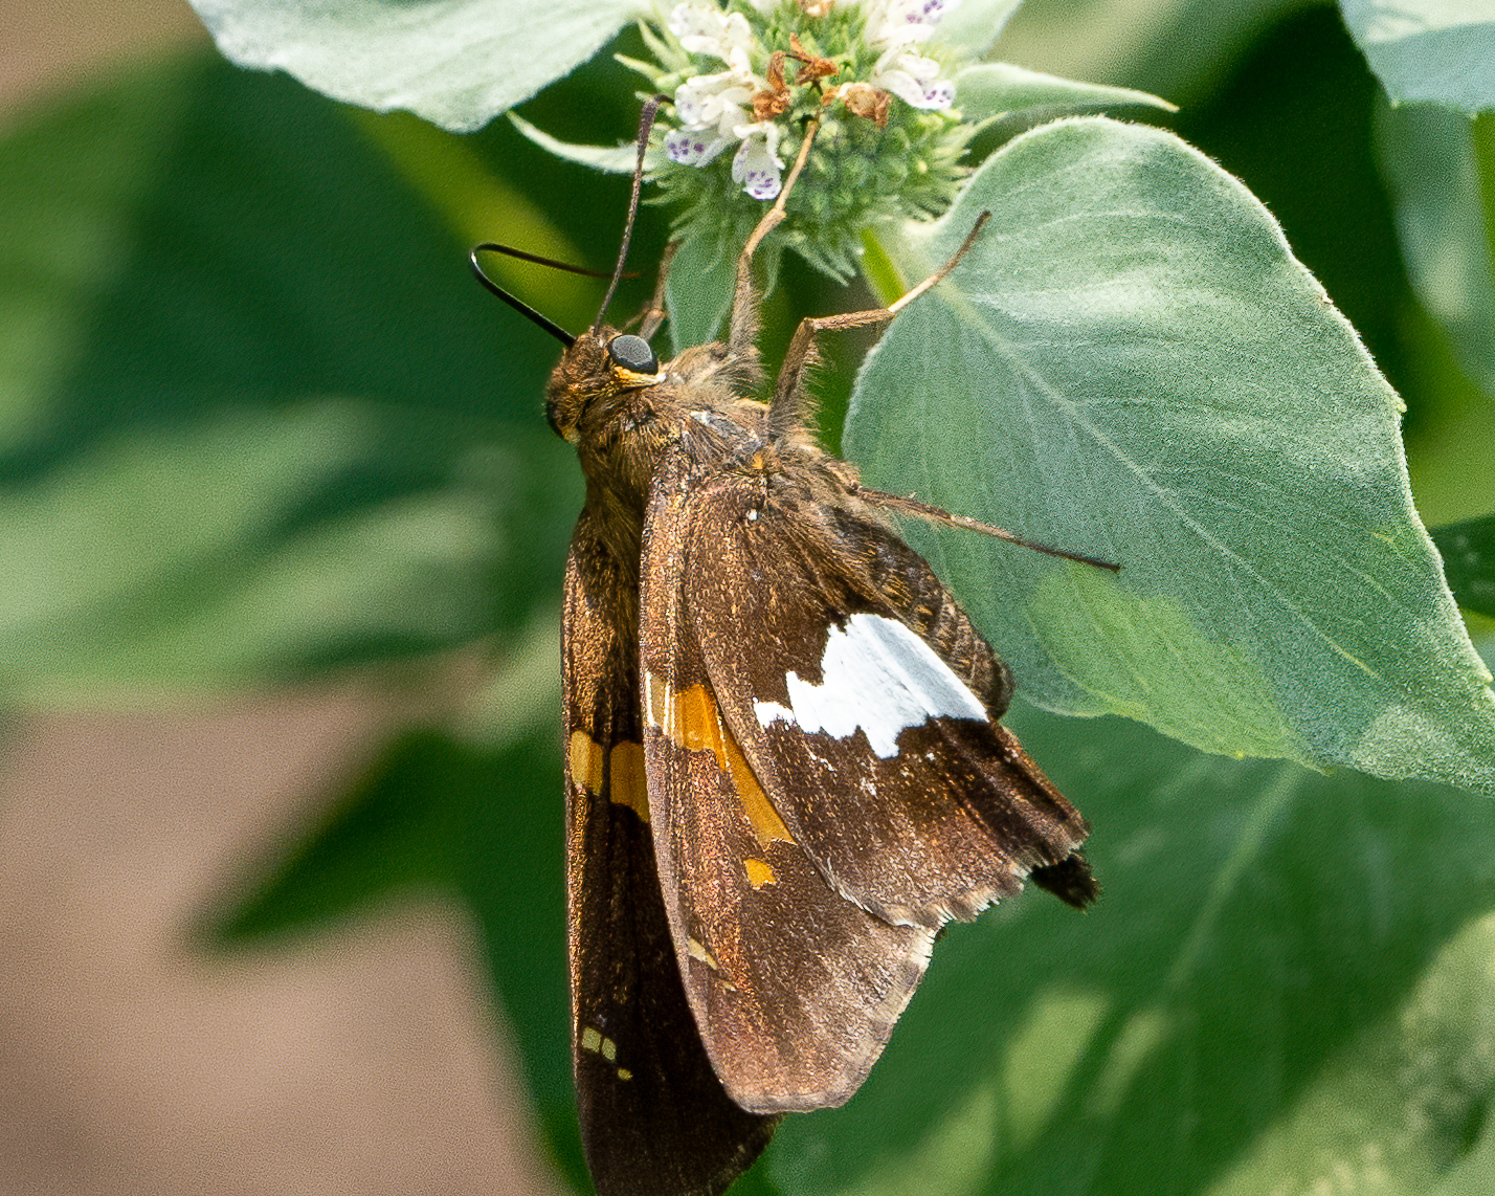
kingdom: Animalia
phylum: Arthropoda
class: Insecta
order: Lepidoptera
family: Hesperiidae
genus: Epargyreus
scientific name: Epargyreus clarus
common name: Silver-spotted skipper
